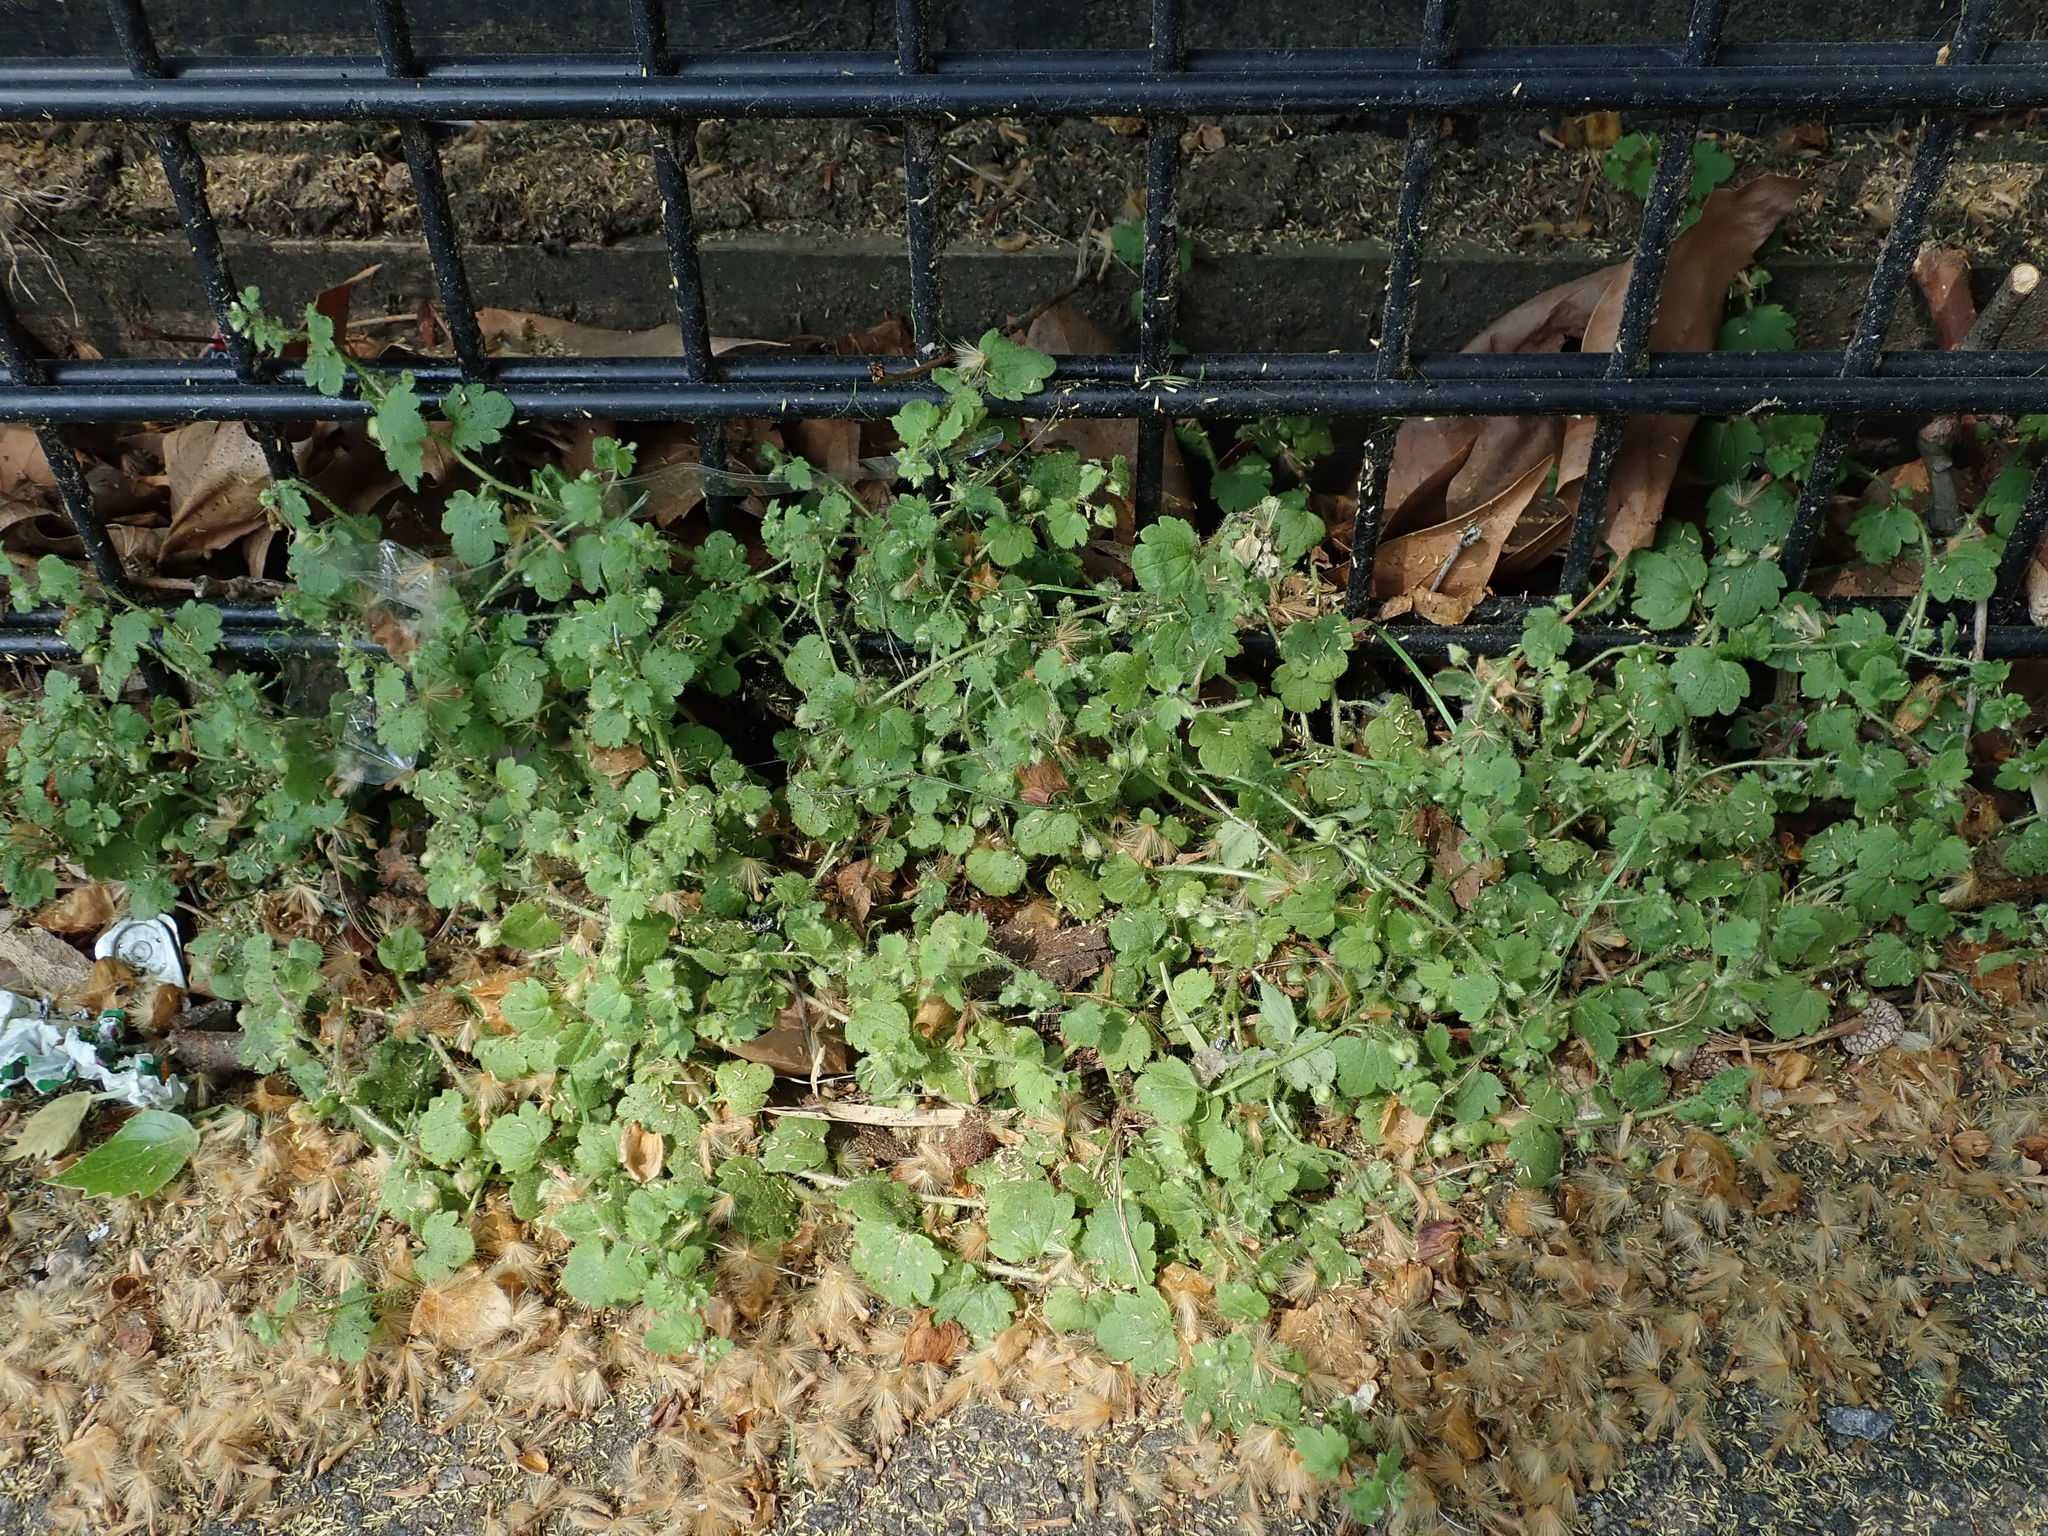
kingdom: Plantae
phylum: Tracheophyta
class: Magnoliopsida
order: Lamiales
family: Plantaginaceae
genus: Veronica
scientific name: Veronica sublobata
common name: False ivy-leaved speedwell
